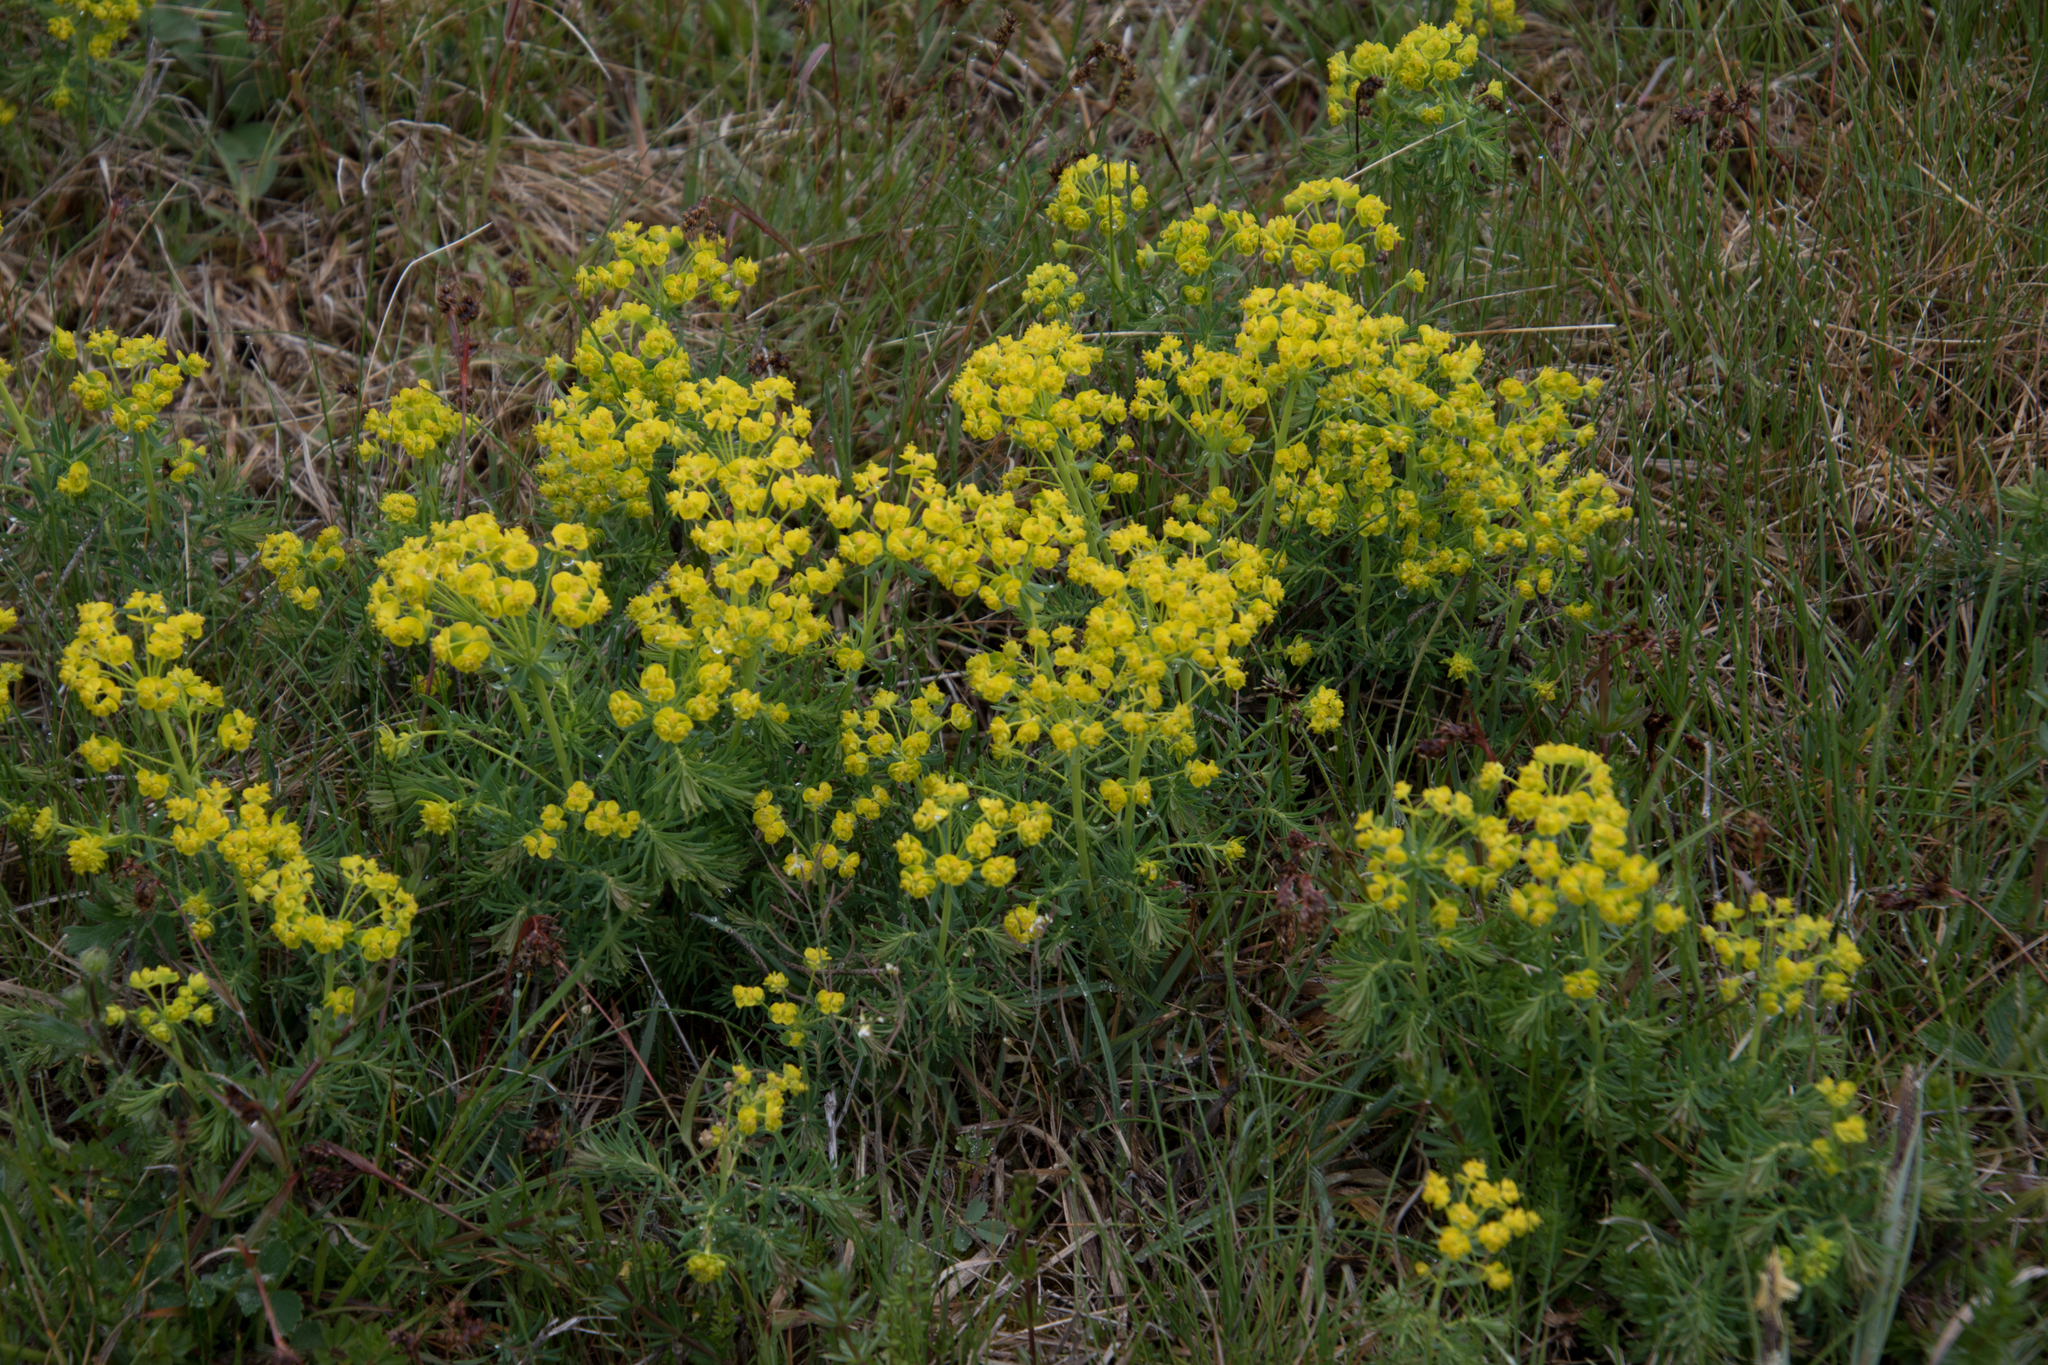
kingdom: Plantae
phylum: Tracheophyta
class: Magnoliopsida
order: Malpighiales
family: Euphorbiaceae
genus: Euphorbia
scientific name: Euphorbia cyparissias
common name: Cypress spurge
